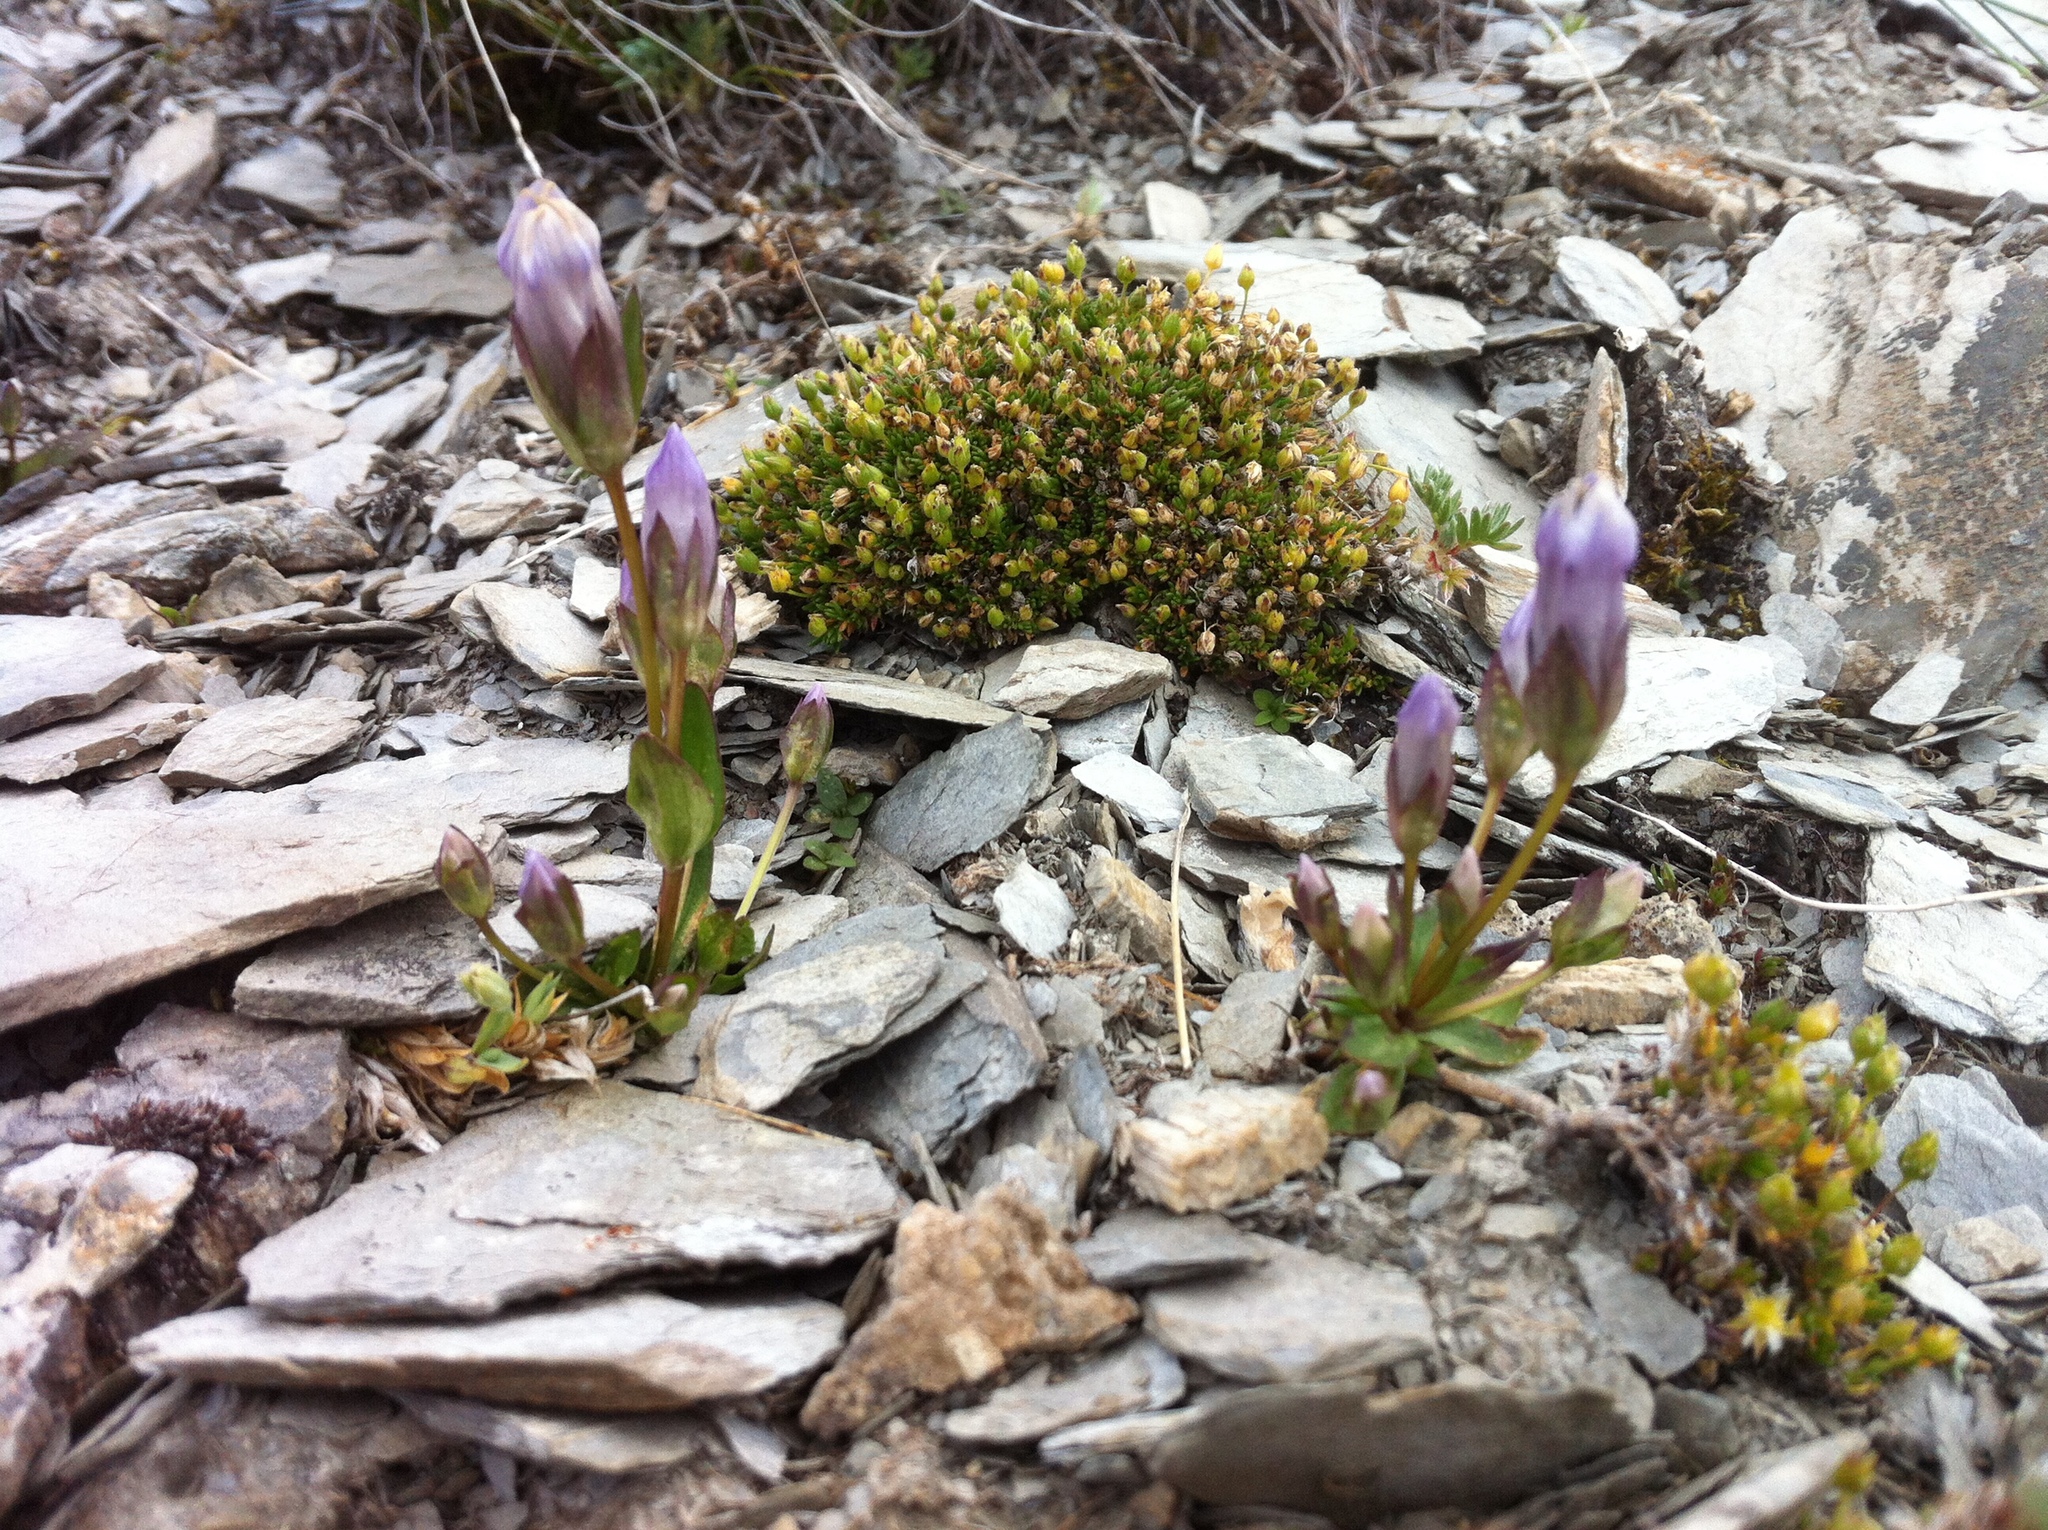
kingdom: Plantae
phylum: Tracheophyta
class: Magnoliopsida
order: Gentianales
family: Gentianaceae
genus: Gentianella
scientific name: Gentianella propinqua
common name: Four-parted dwarf-gentian
